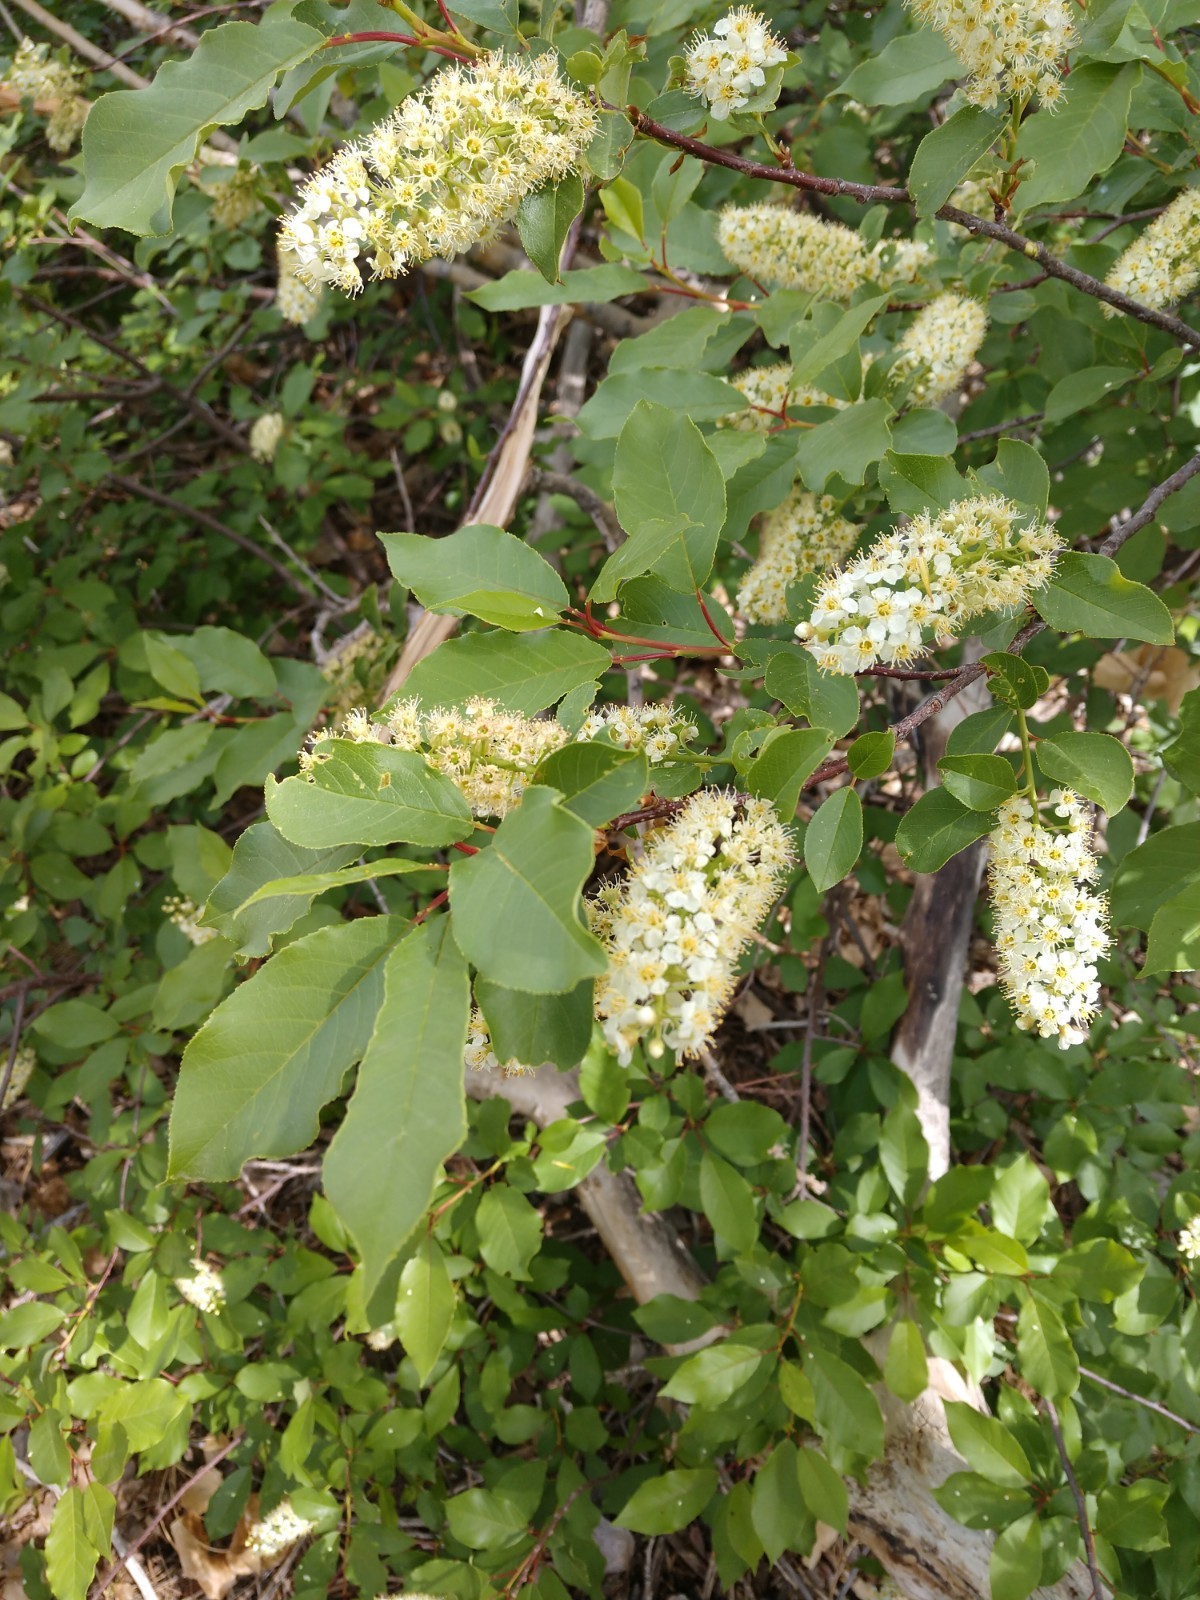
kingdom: Plantae
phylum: Tracheophyta
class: Magnoliopsida
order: Rosales
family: Rosaceae
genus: Prunus
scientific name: Prunus virginiana
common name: Chokecherry
